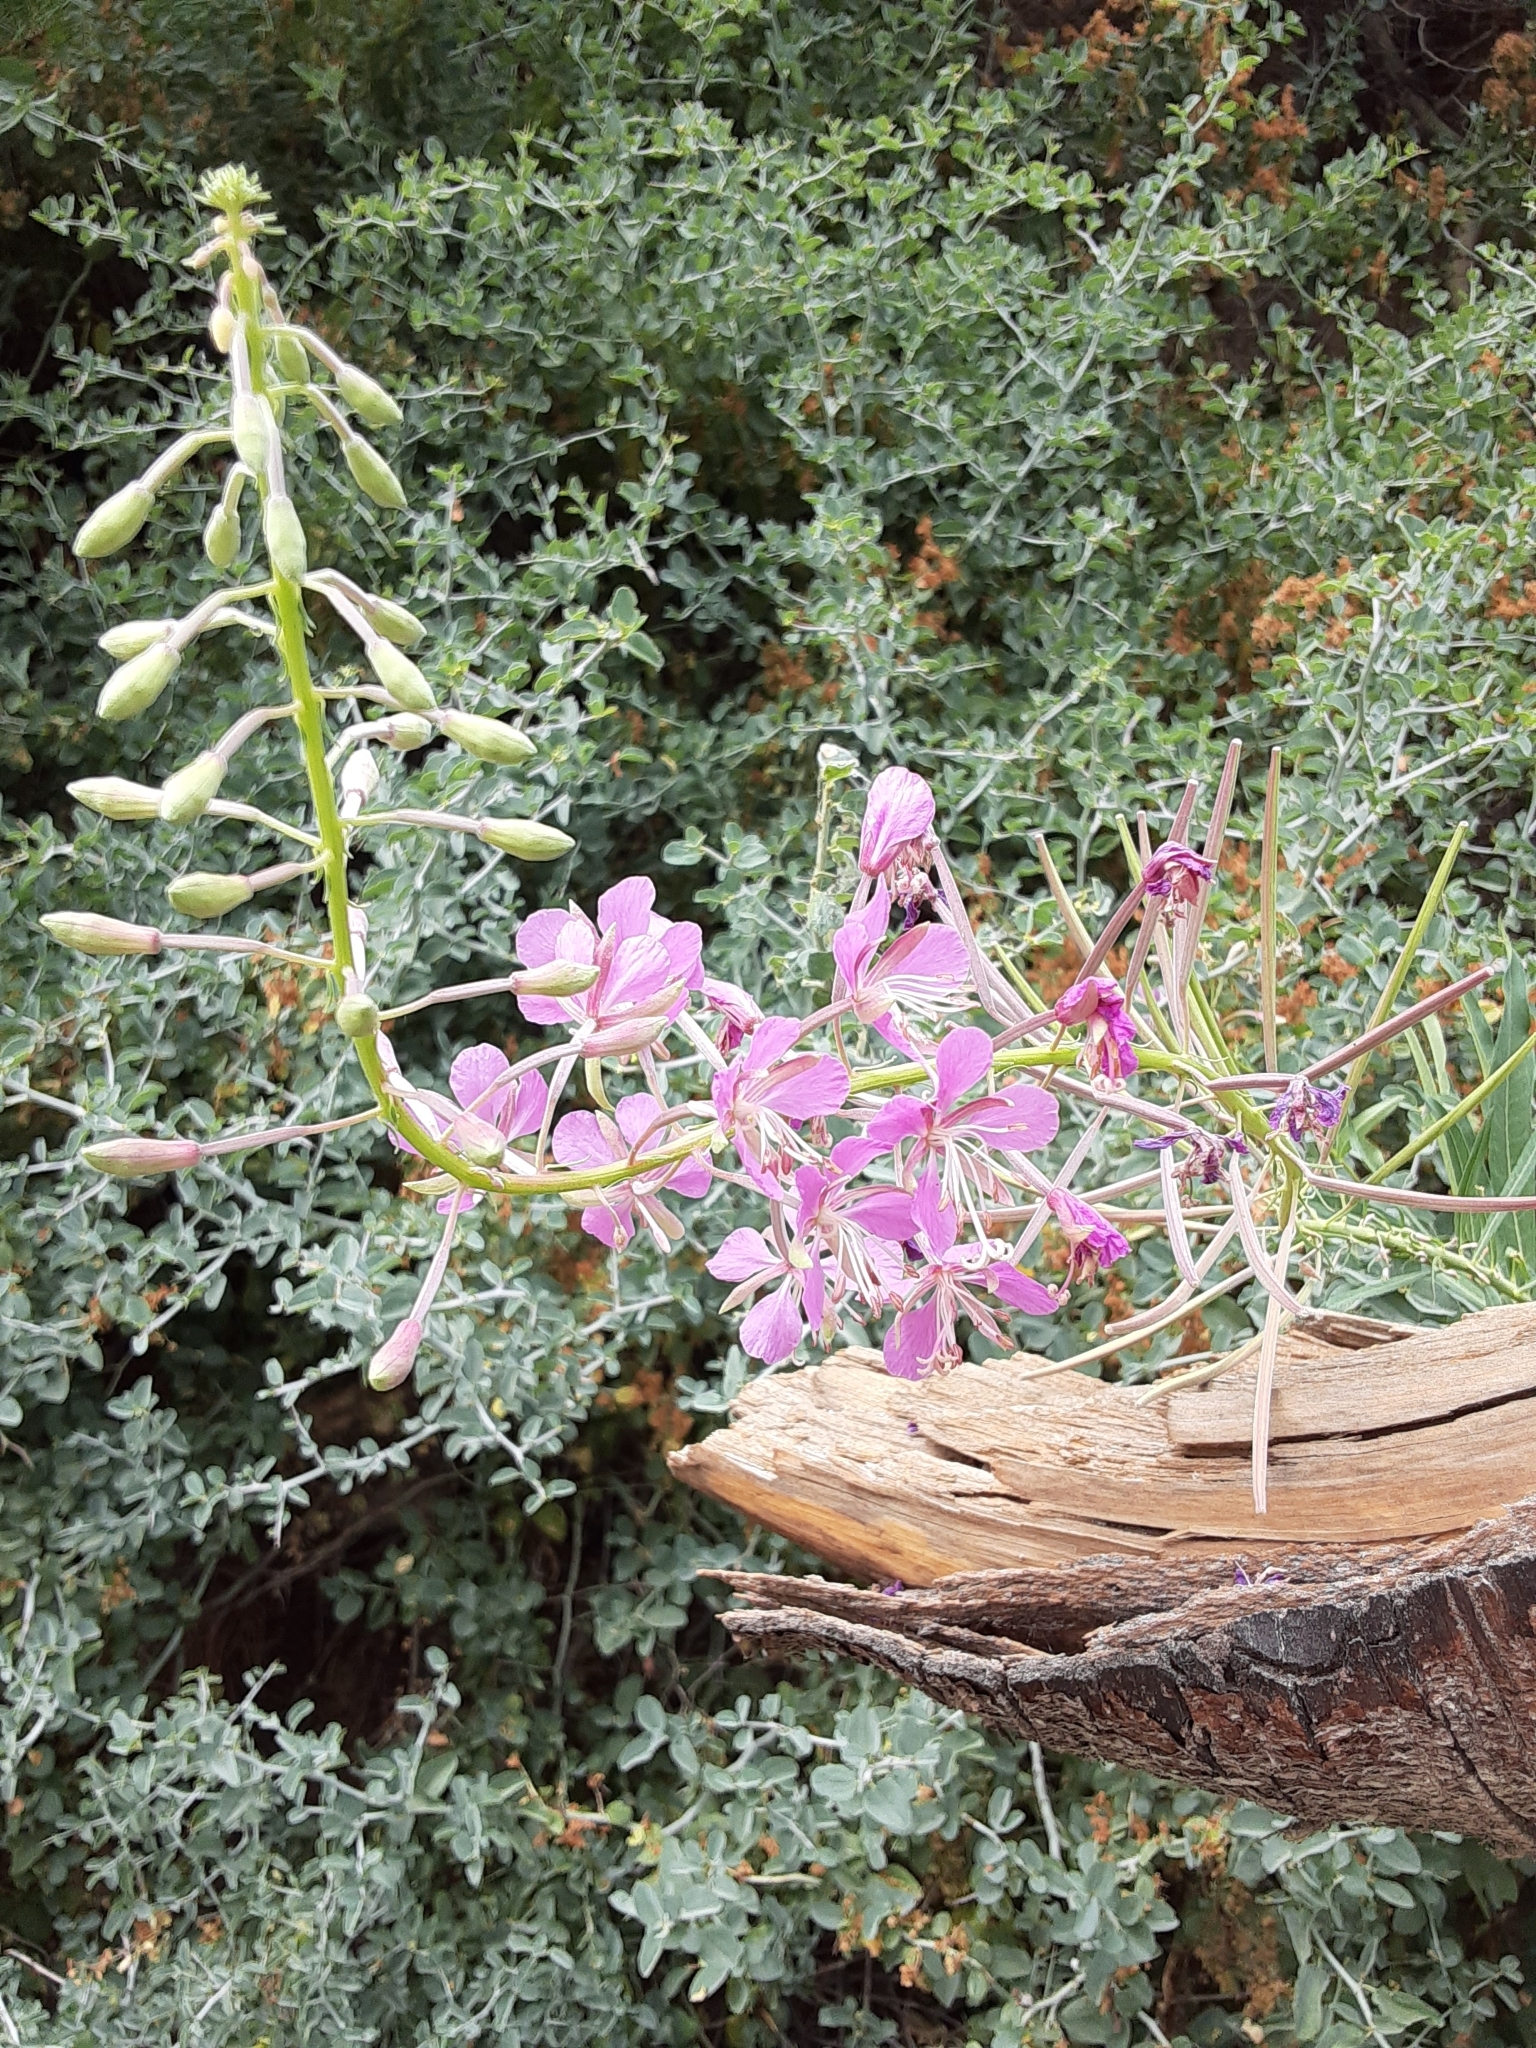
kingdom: Plantae
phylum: Tracheophyta
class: Magnoliopsida
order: Myrtales
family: Onagraceae
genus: Chamaenerion
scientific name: Chamaenerion angustifolium
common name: Fireweed
